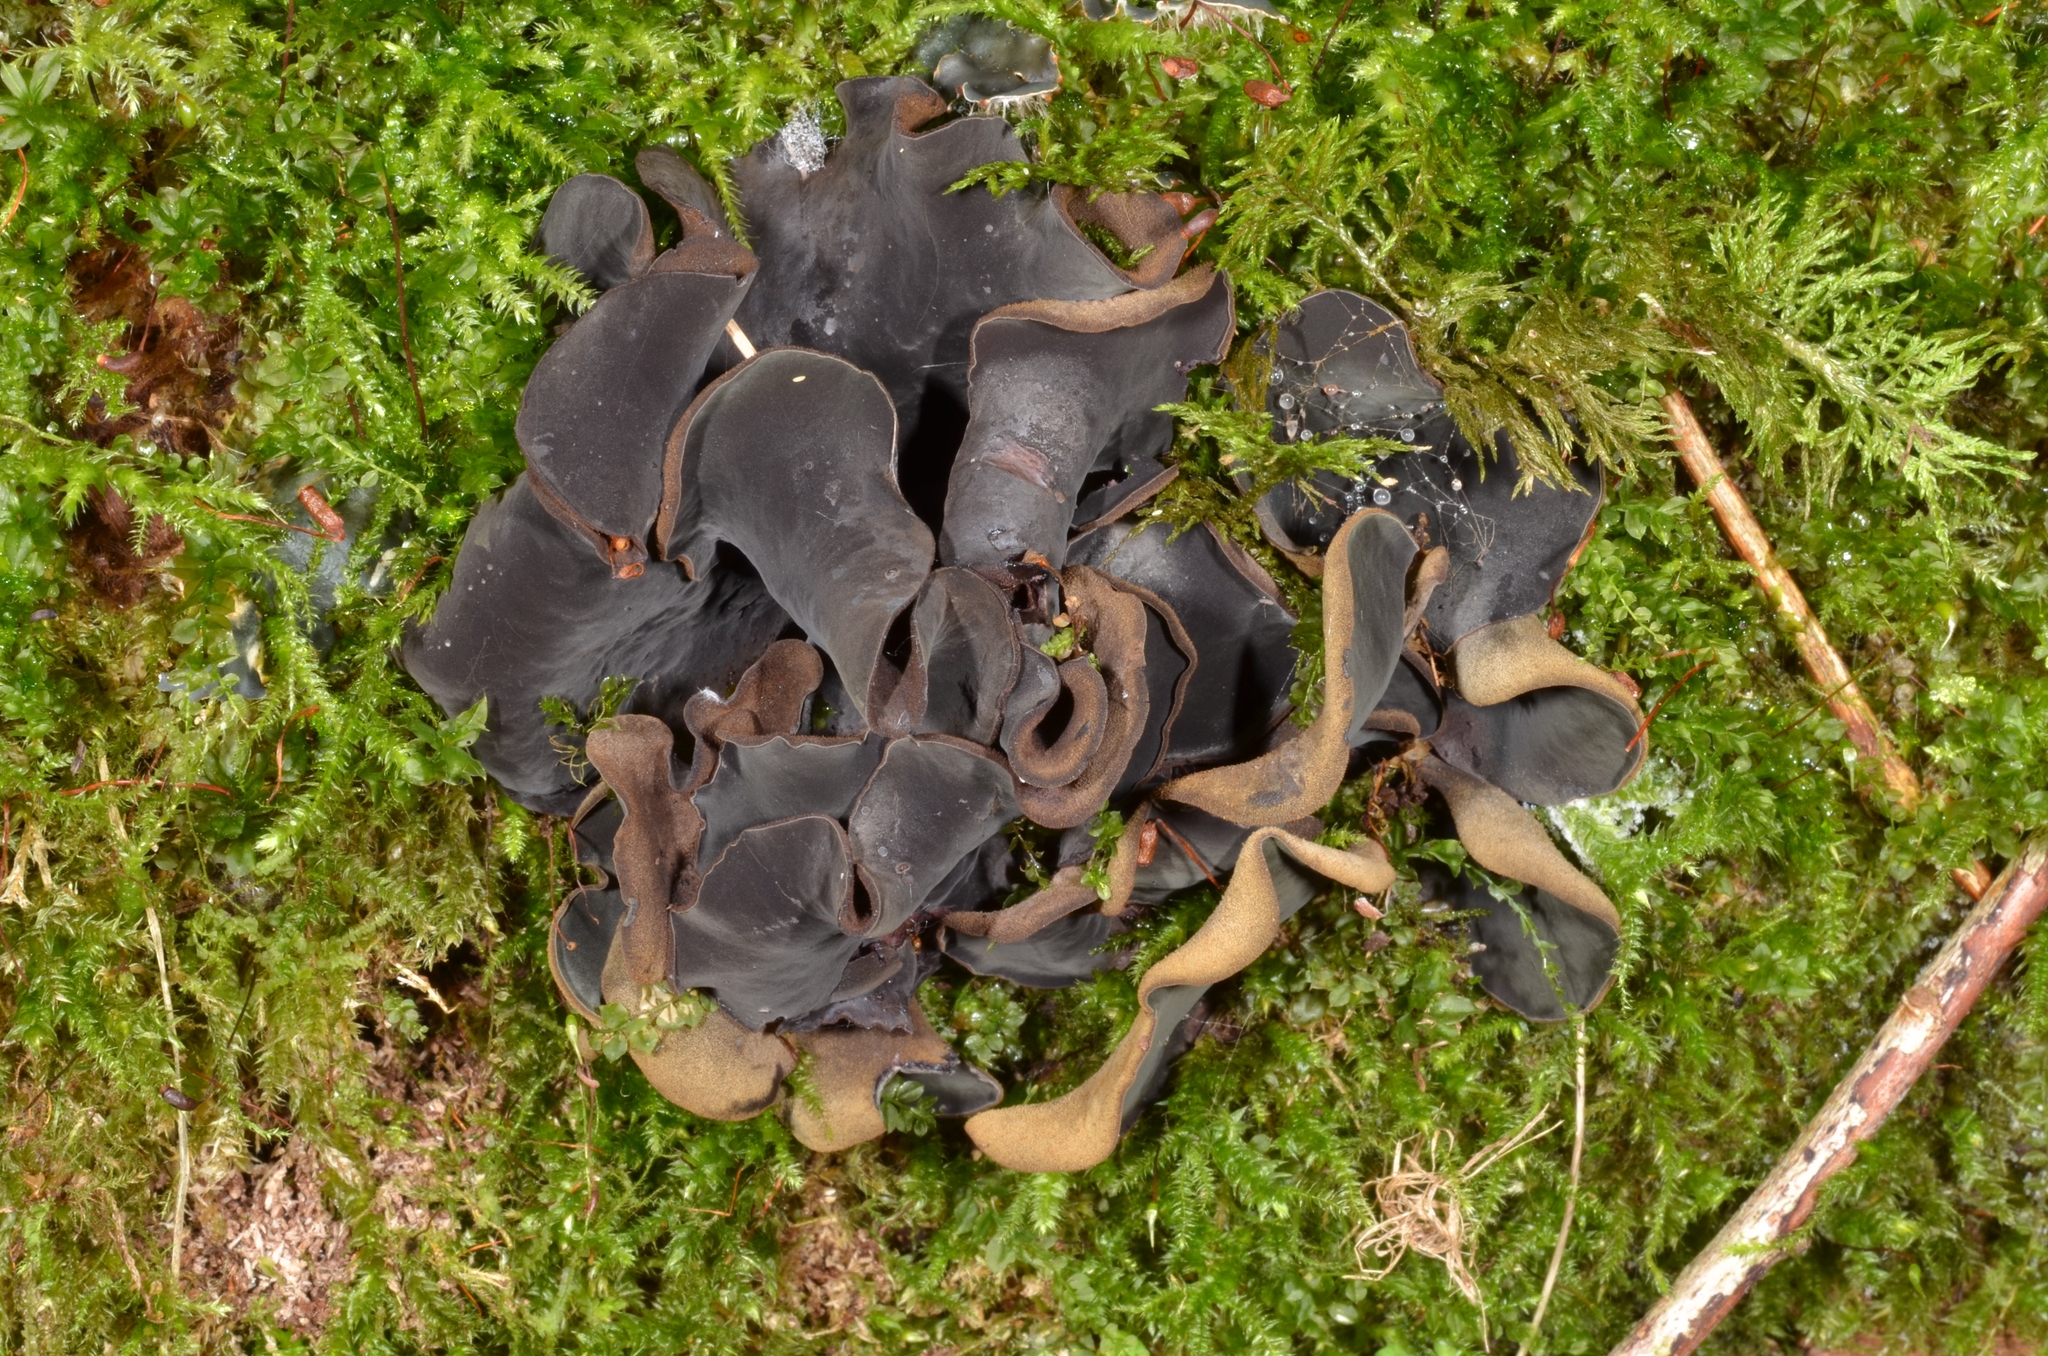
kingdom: Fungi
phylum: Ascomycota
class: Leotiomycetes
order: Helotiales
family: Cordieritidaceae
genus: Diplocarpa
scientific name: Diplocarpa irregularis
